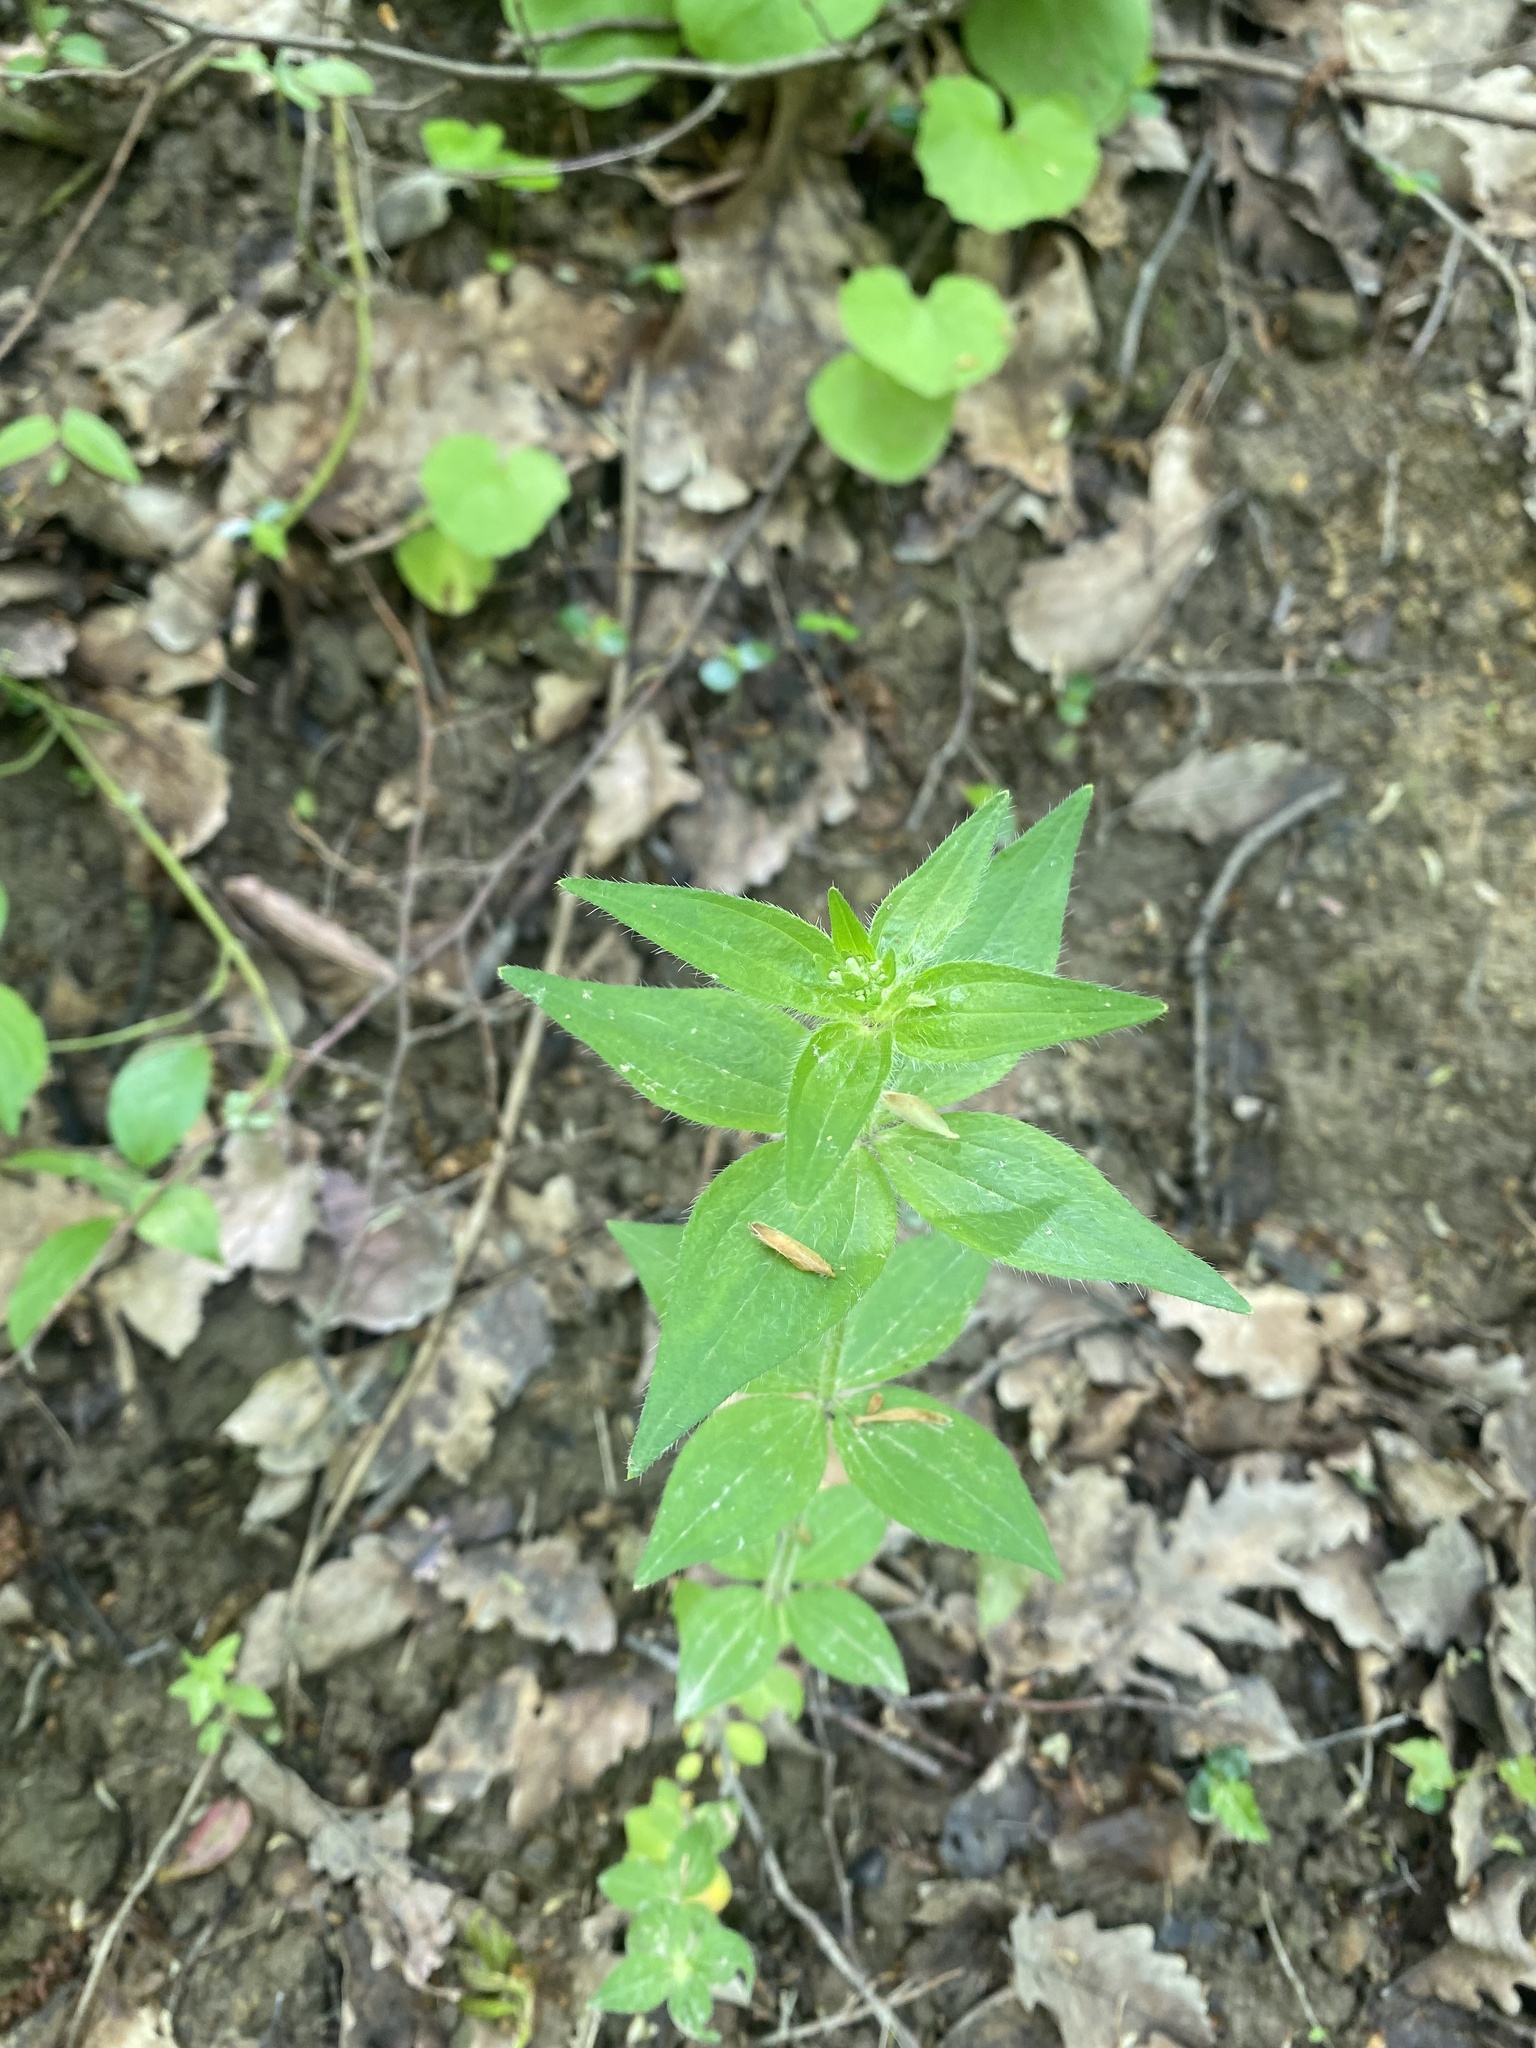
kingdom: Plantae
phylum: Tracheophyta
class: Magnoliopsida
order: Gentianales
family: Rubiaceae
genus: Asperula
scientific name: Asperula taurina
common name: Pink woodruff
